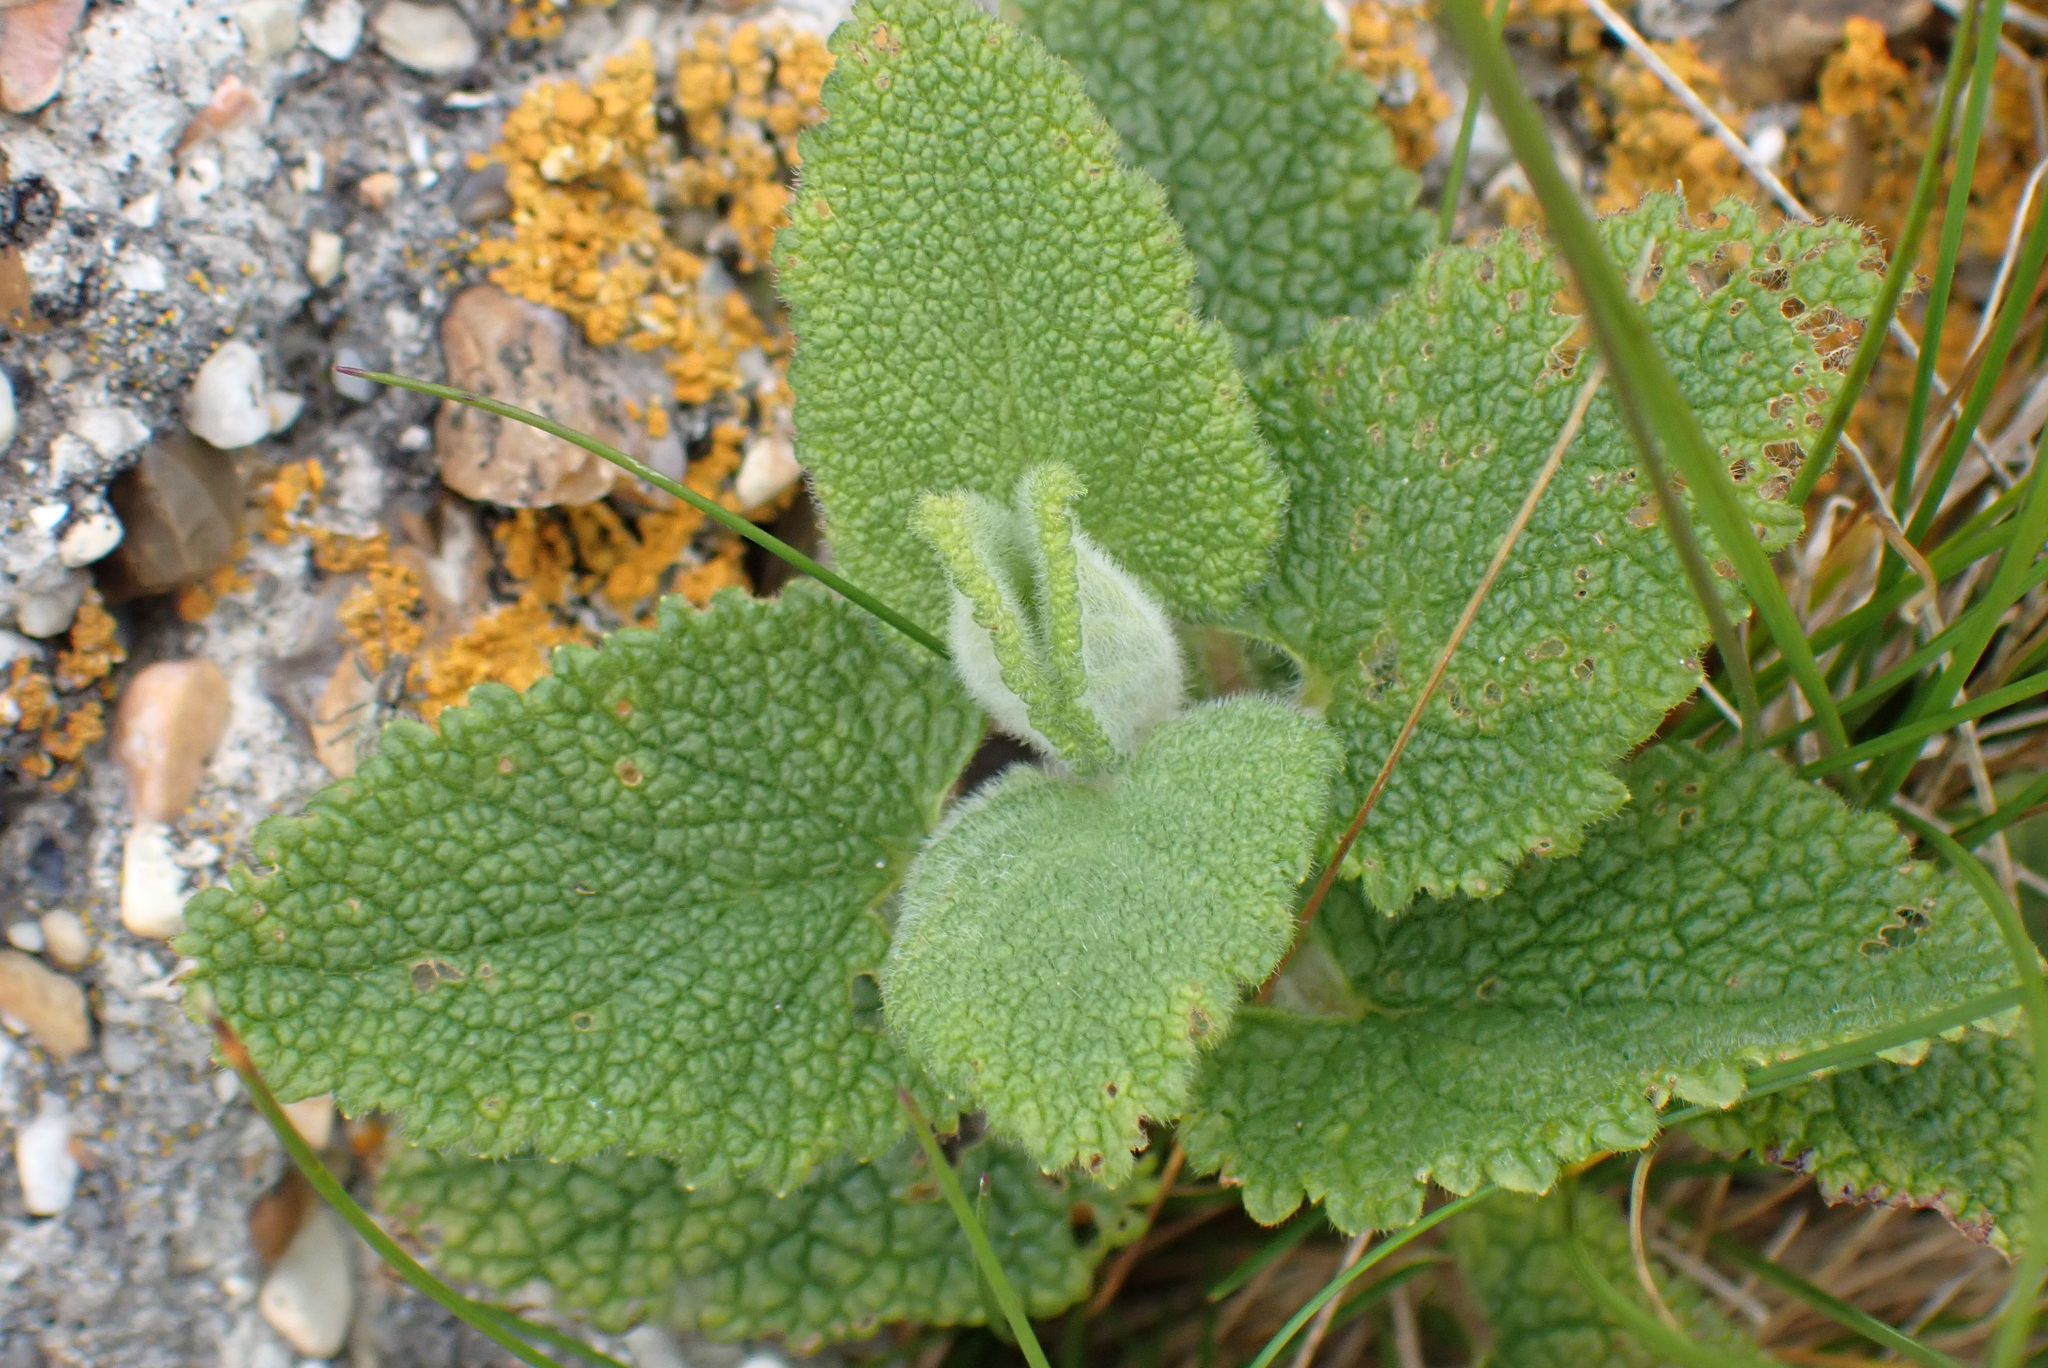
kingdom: Plantae
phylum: Tracheophyta
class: Magnoliopsida
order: Lamiales
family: Lamiaceae
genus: Teucrium
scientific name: Teucrium scorodonia
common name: Woodland germander
